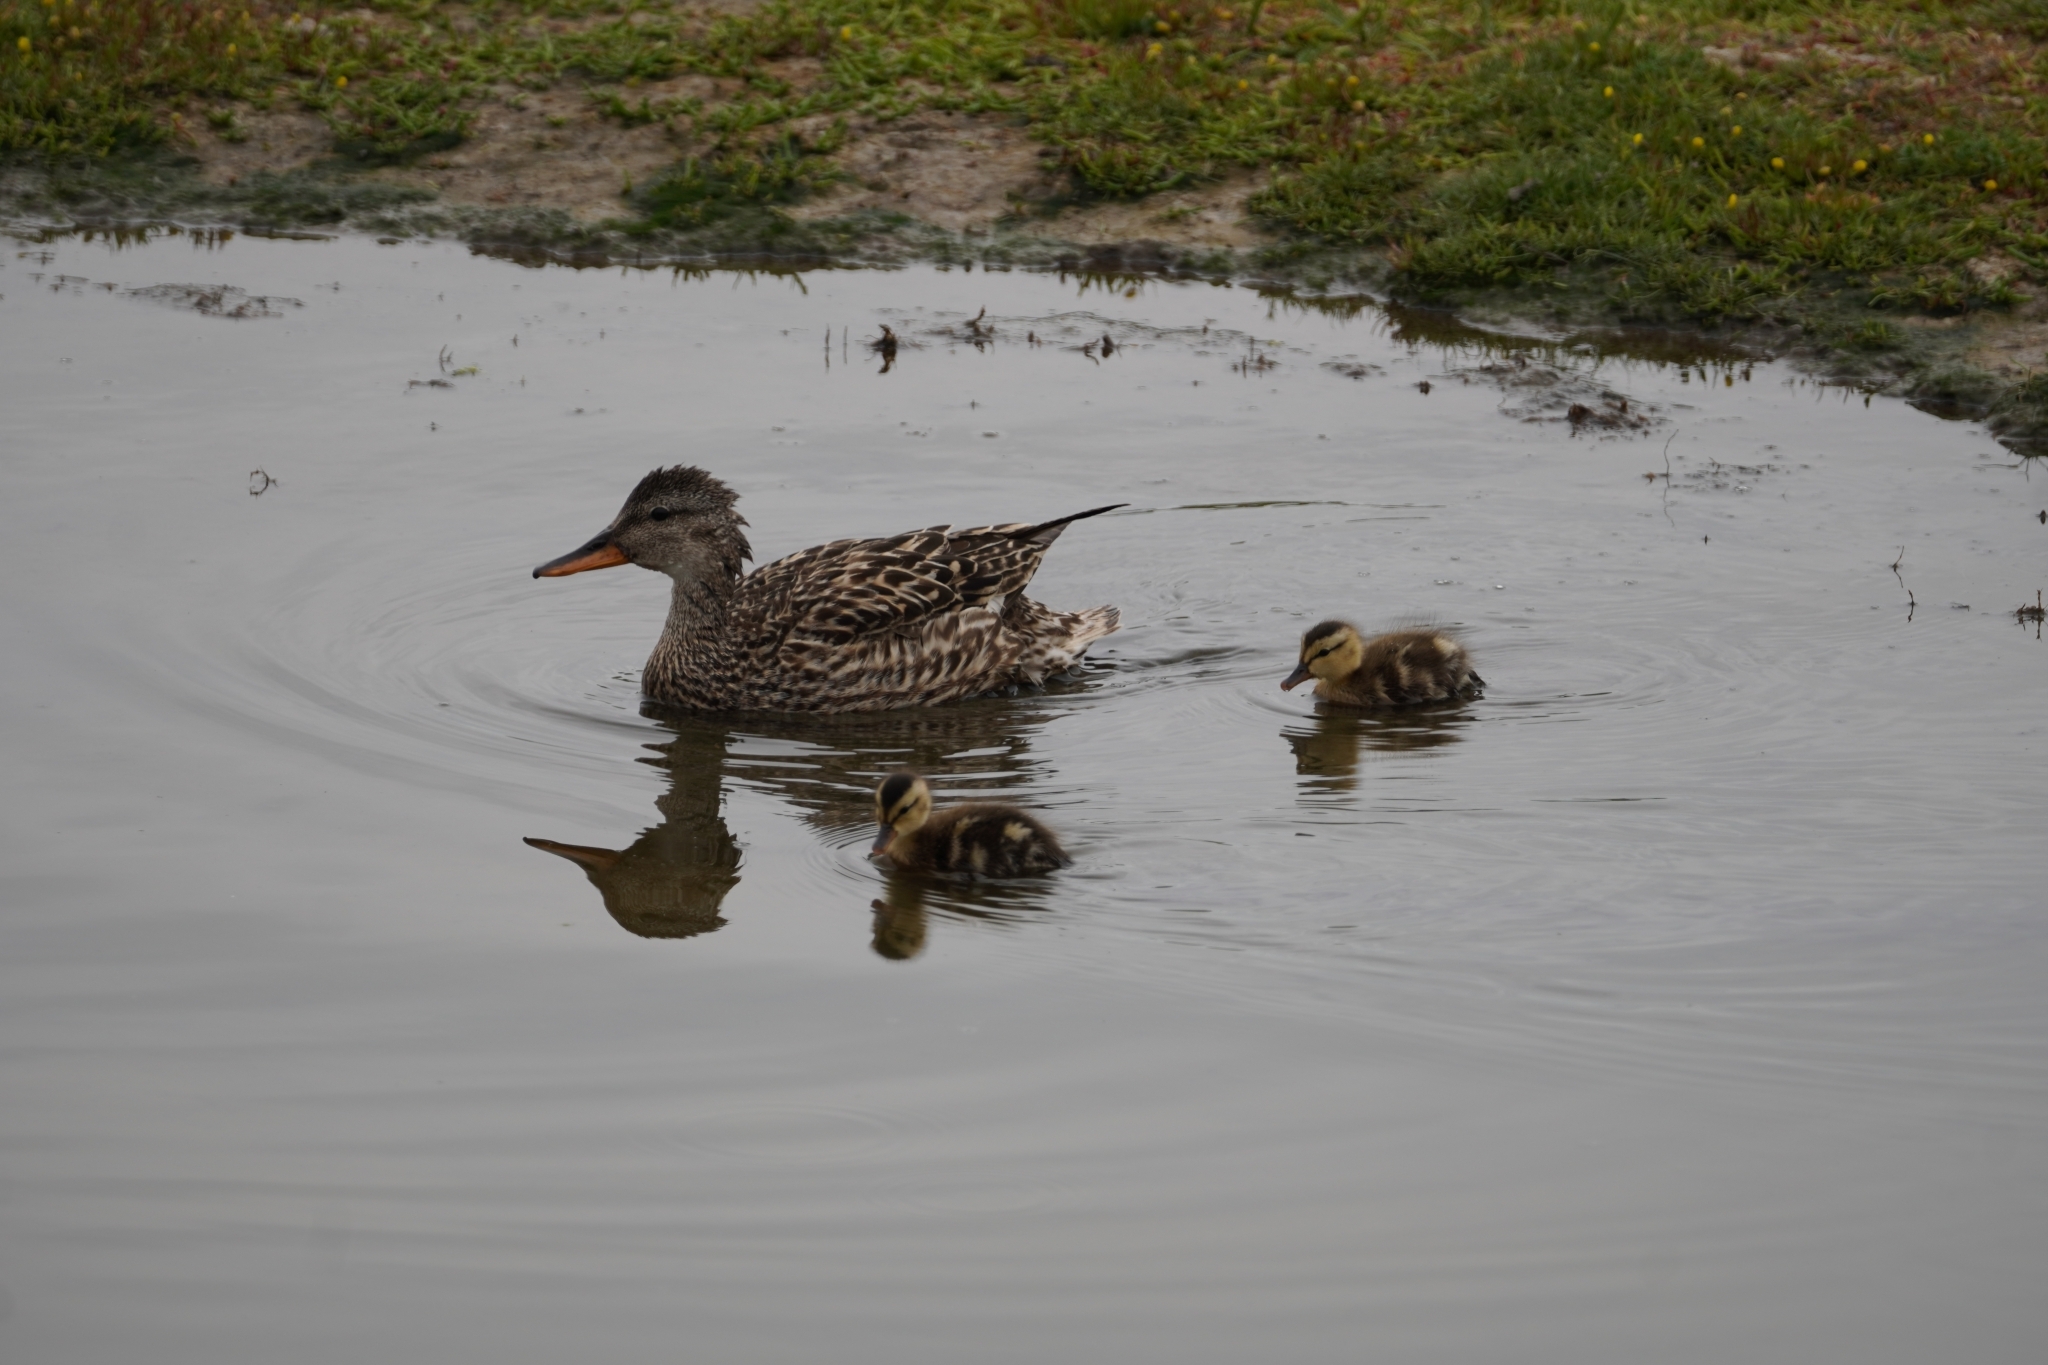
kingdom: Animalia
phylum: Chordata
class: Aves
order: Anseriformes
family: Anatidae
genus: Mareca
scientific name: Mareca strepera
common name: Gadwall
